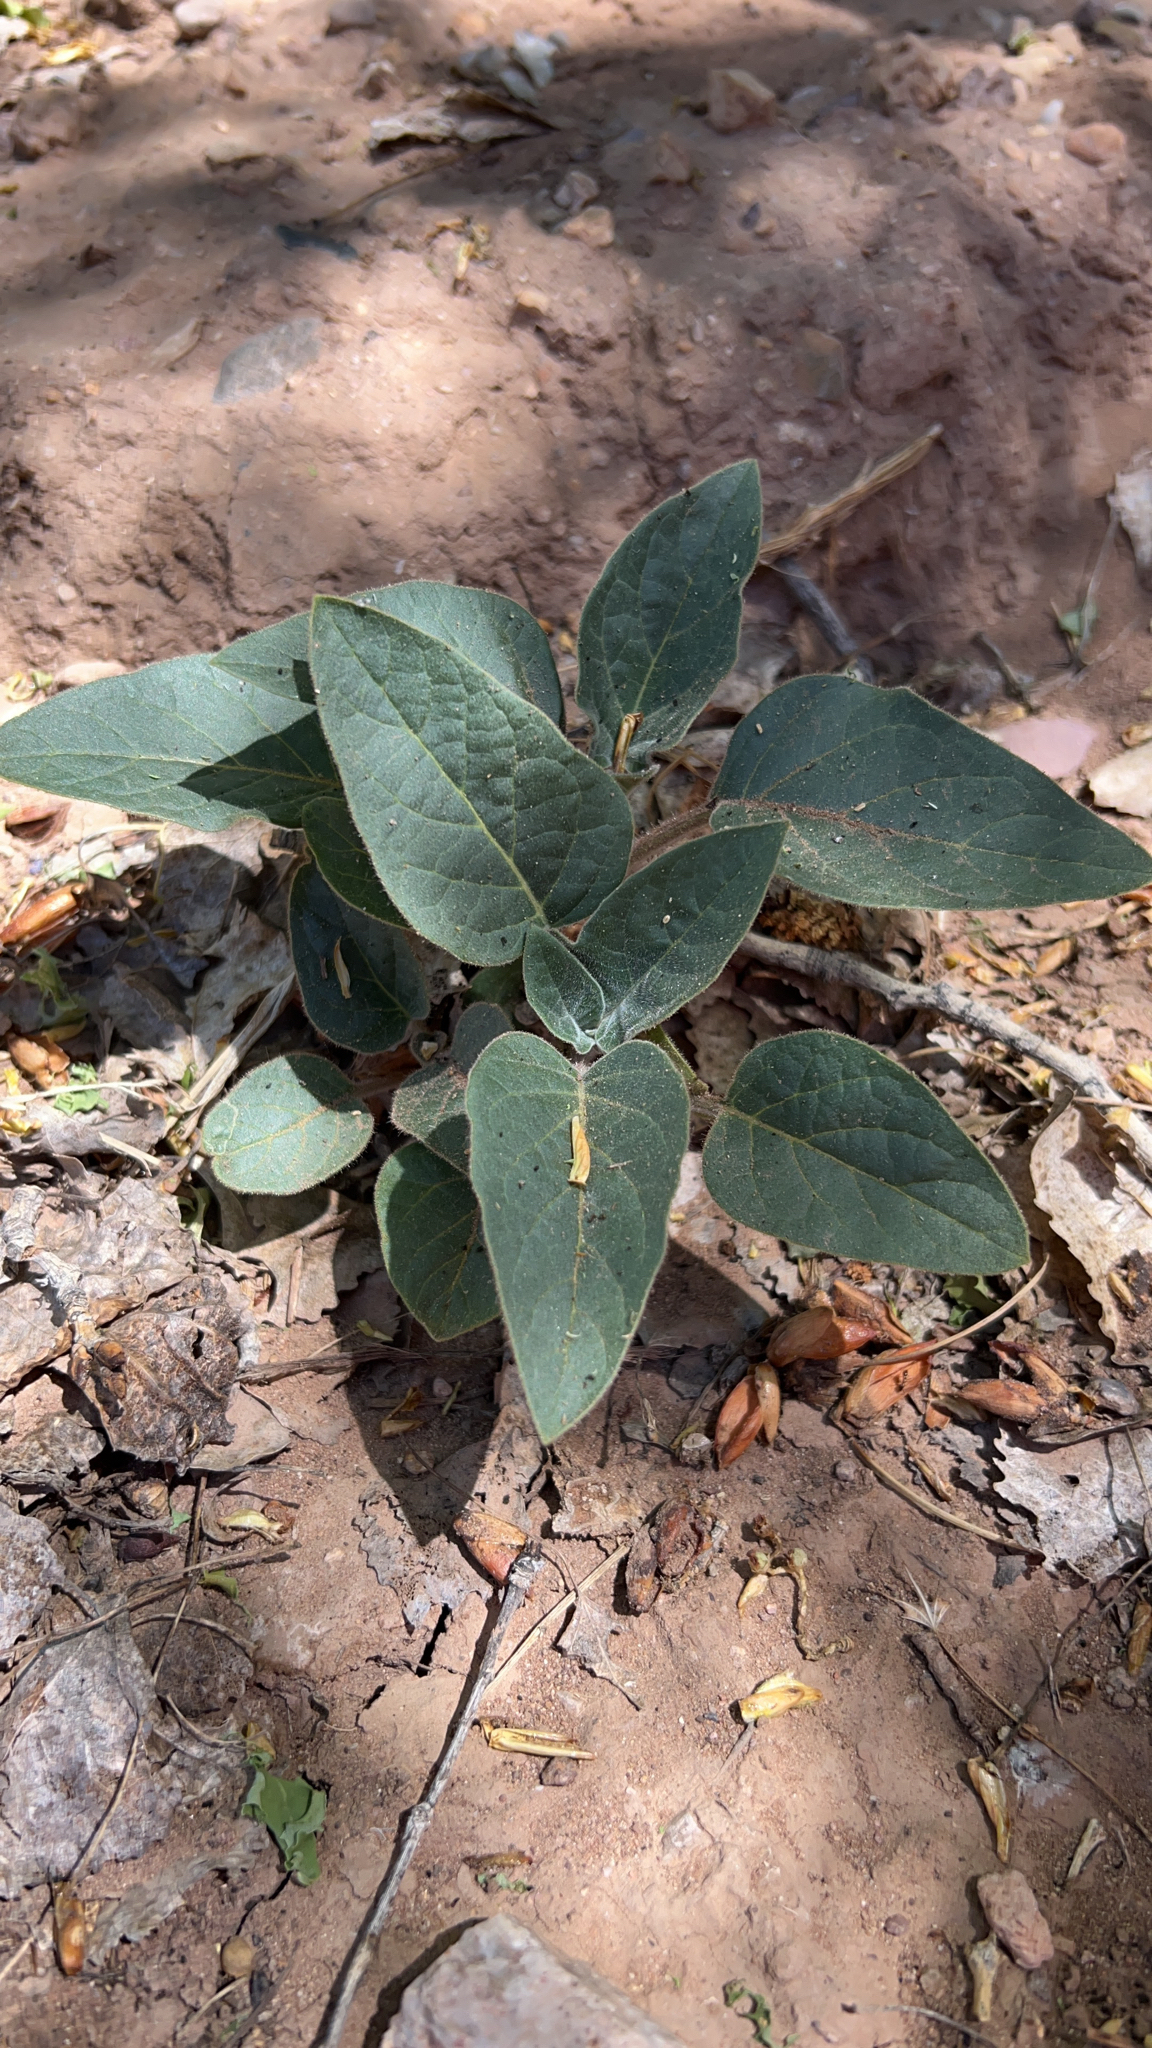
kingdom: Plantae
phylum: Tracheophyta
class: Magnoliopsida
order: Solanales
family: Solanaceae
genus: Datura
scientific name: Datura wrightii
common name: Sacred thorn-apple
